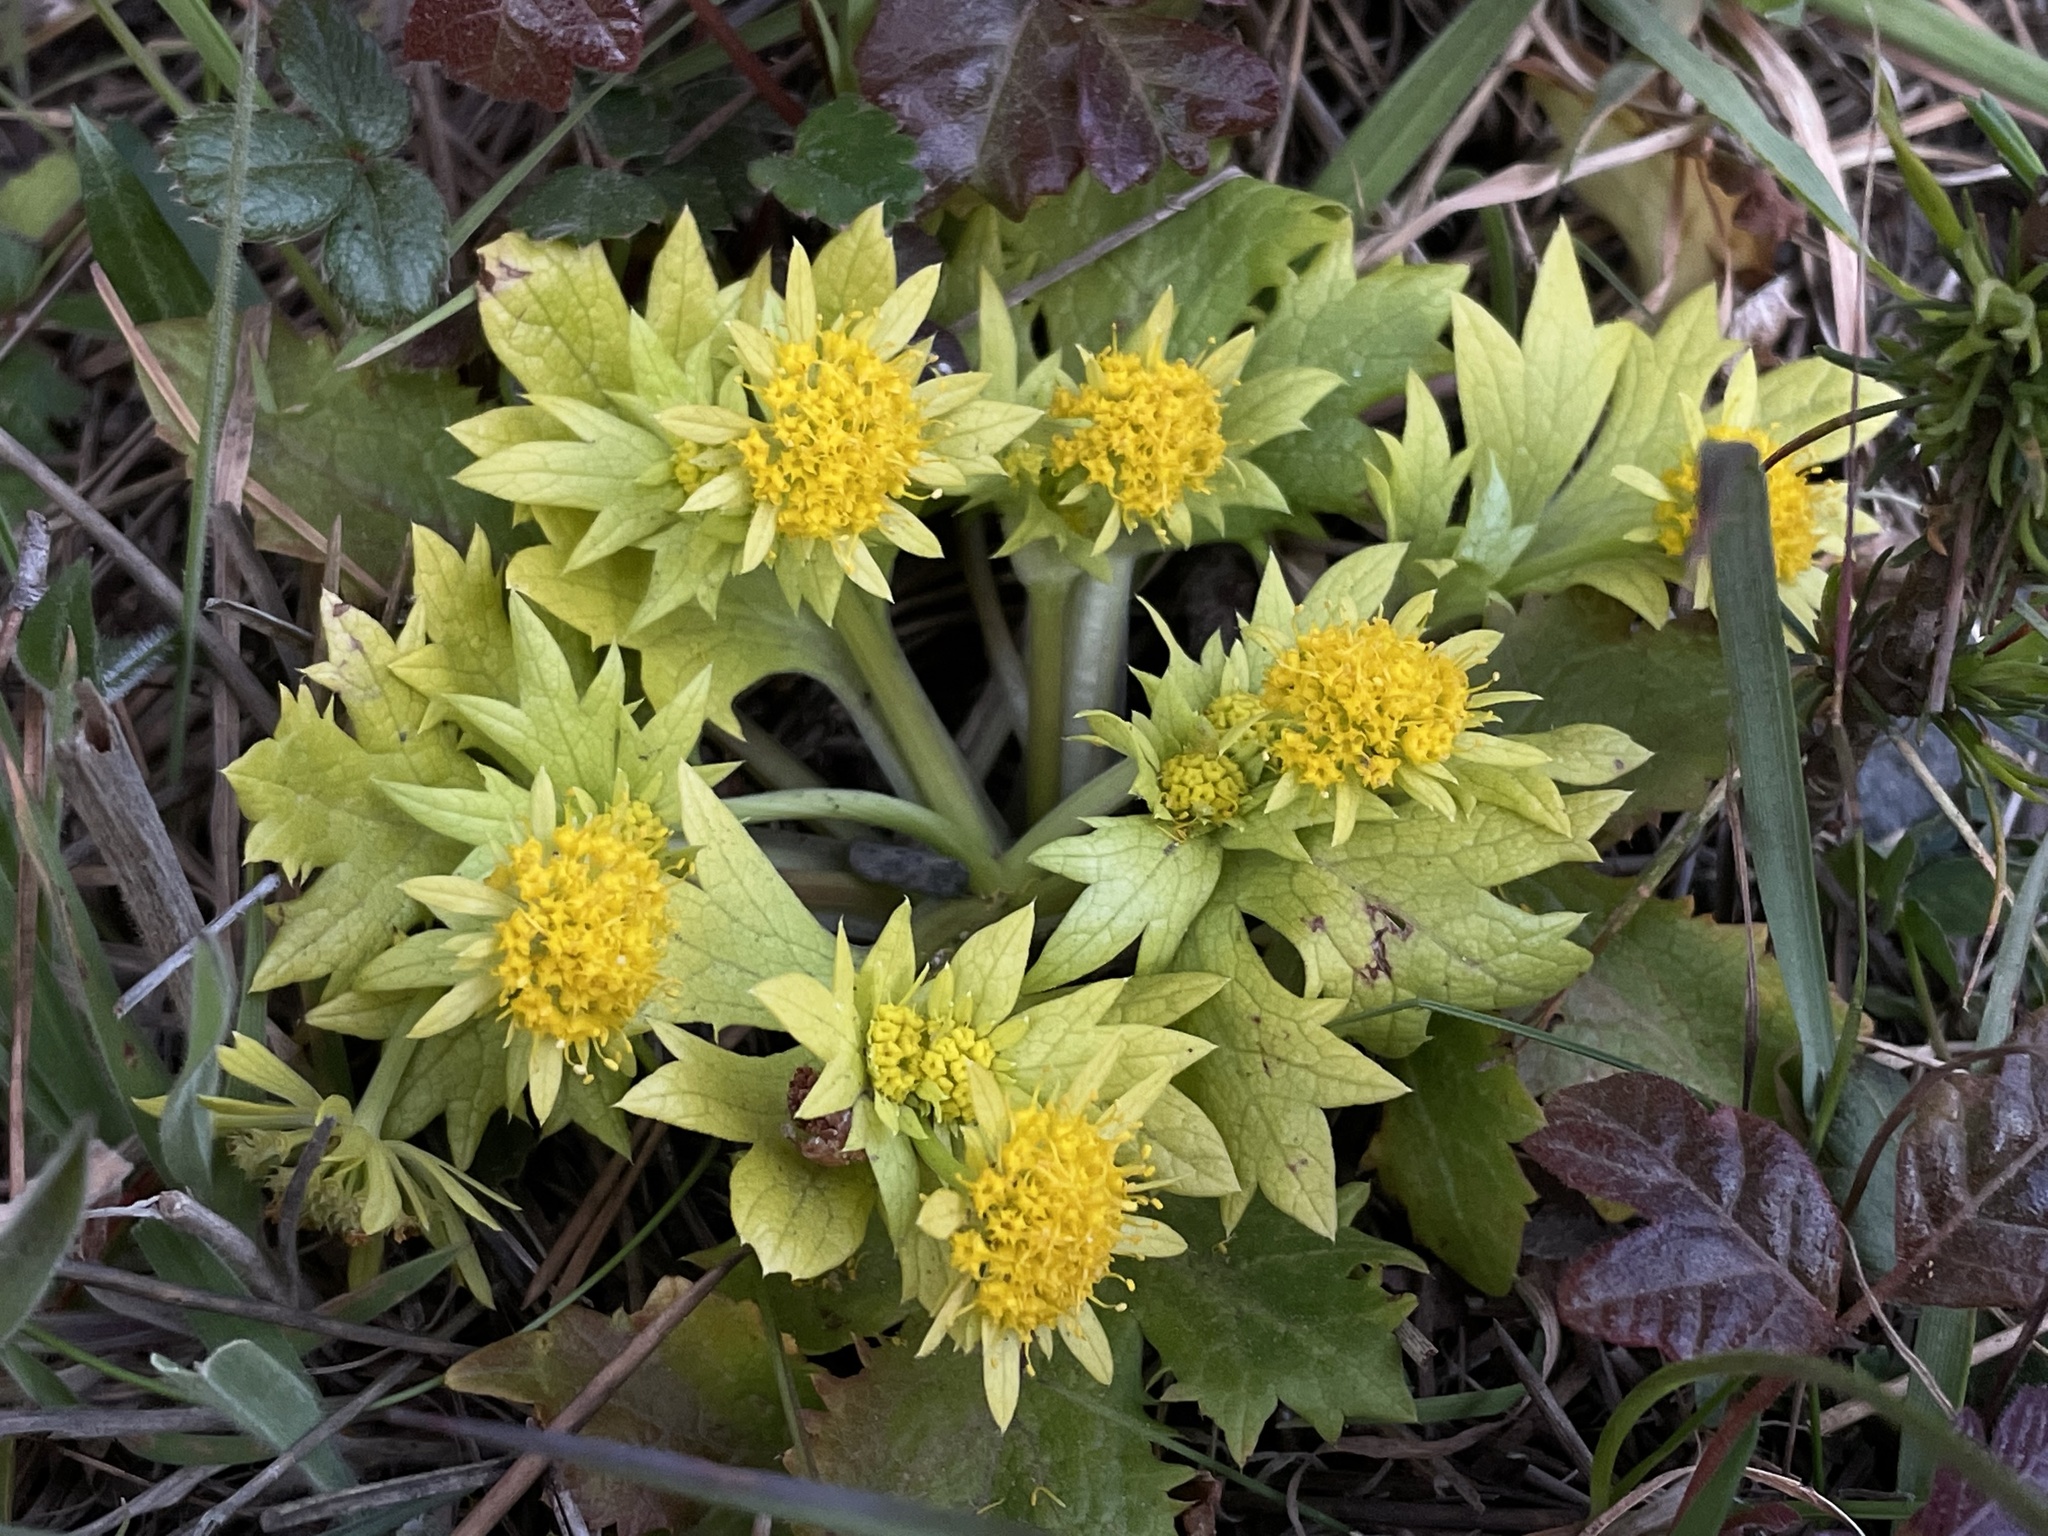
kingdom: Plantae
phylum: Tracheophyta
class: Magnoliopsida
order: Apiales
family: Apiaceae
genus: Sanicula
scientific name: Sanicula arctopoides
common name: Footsteps-of-spring
